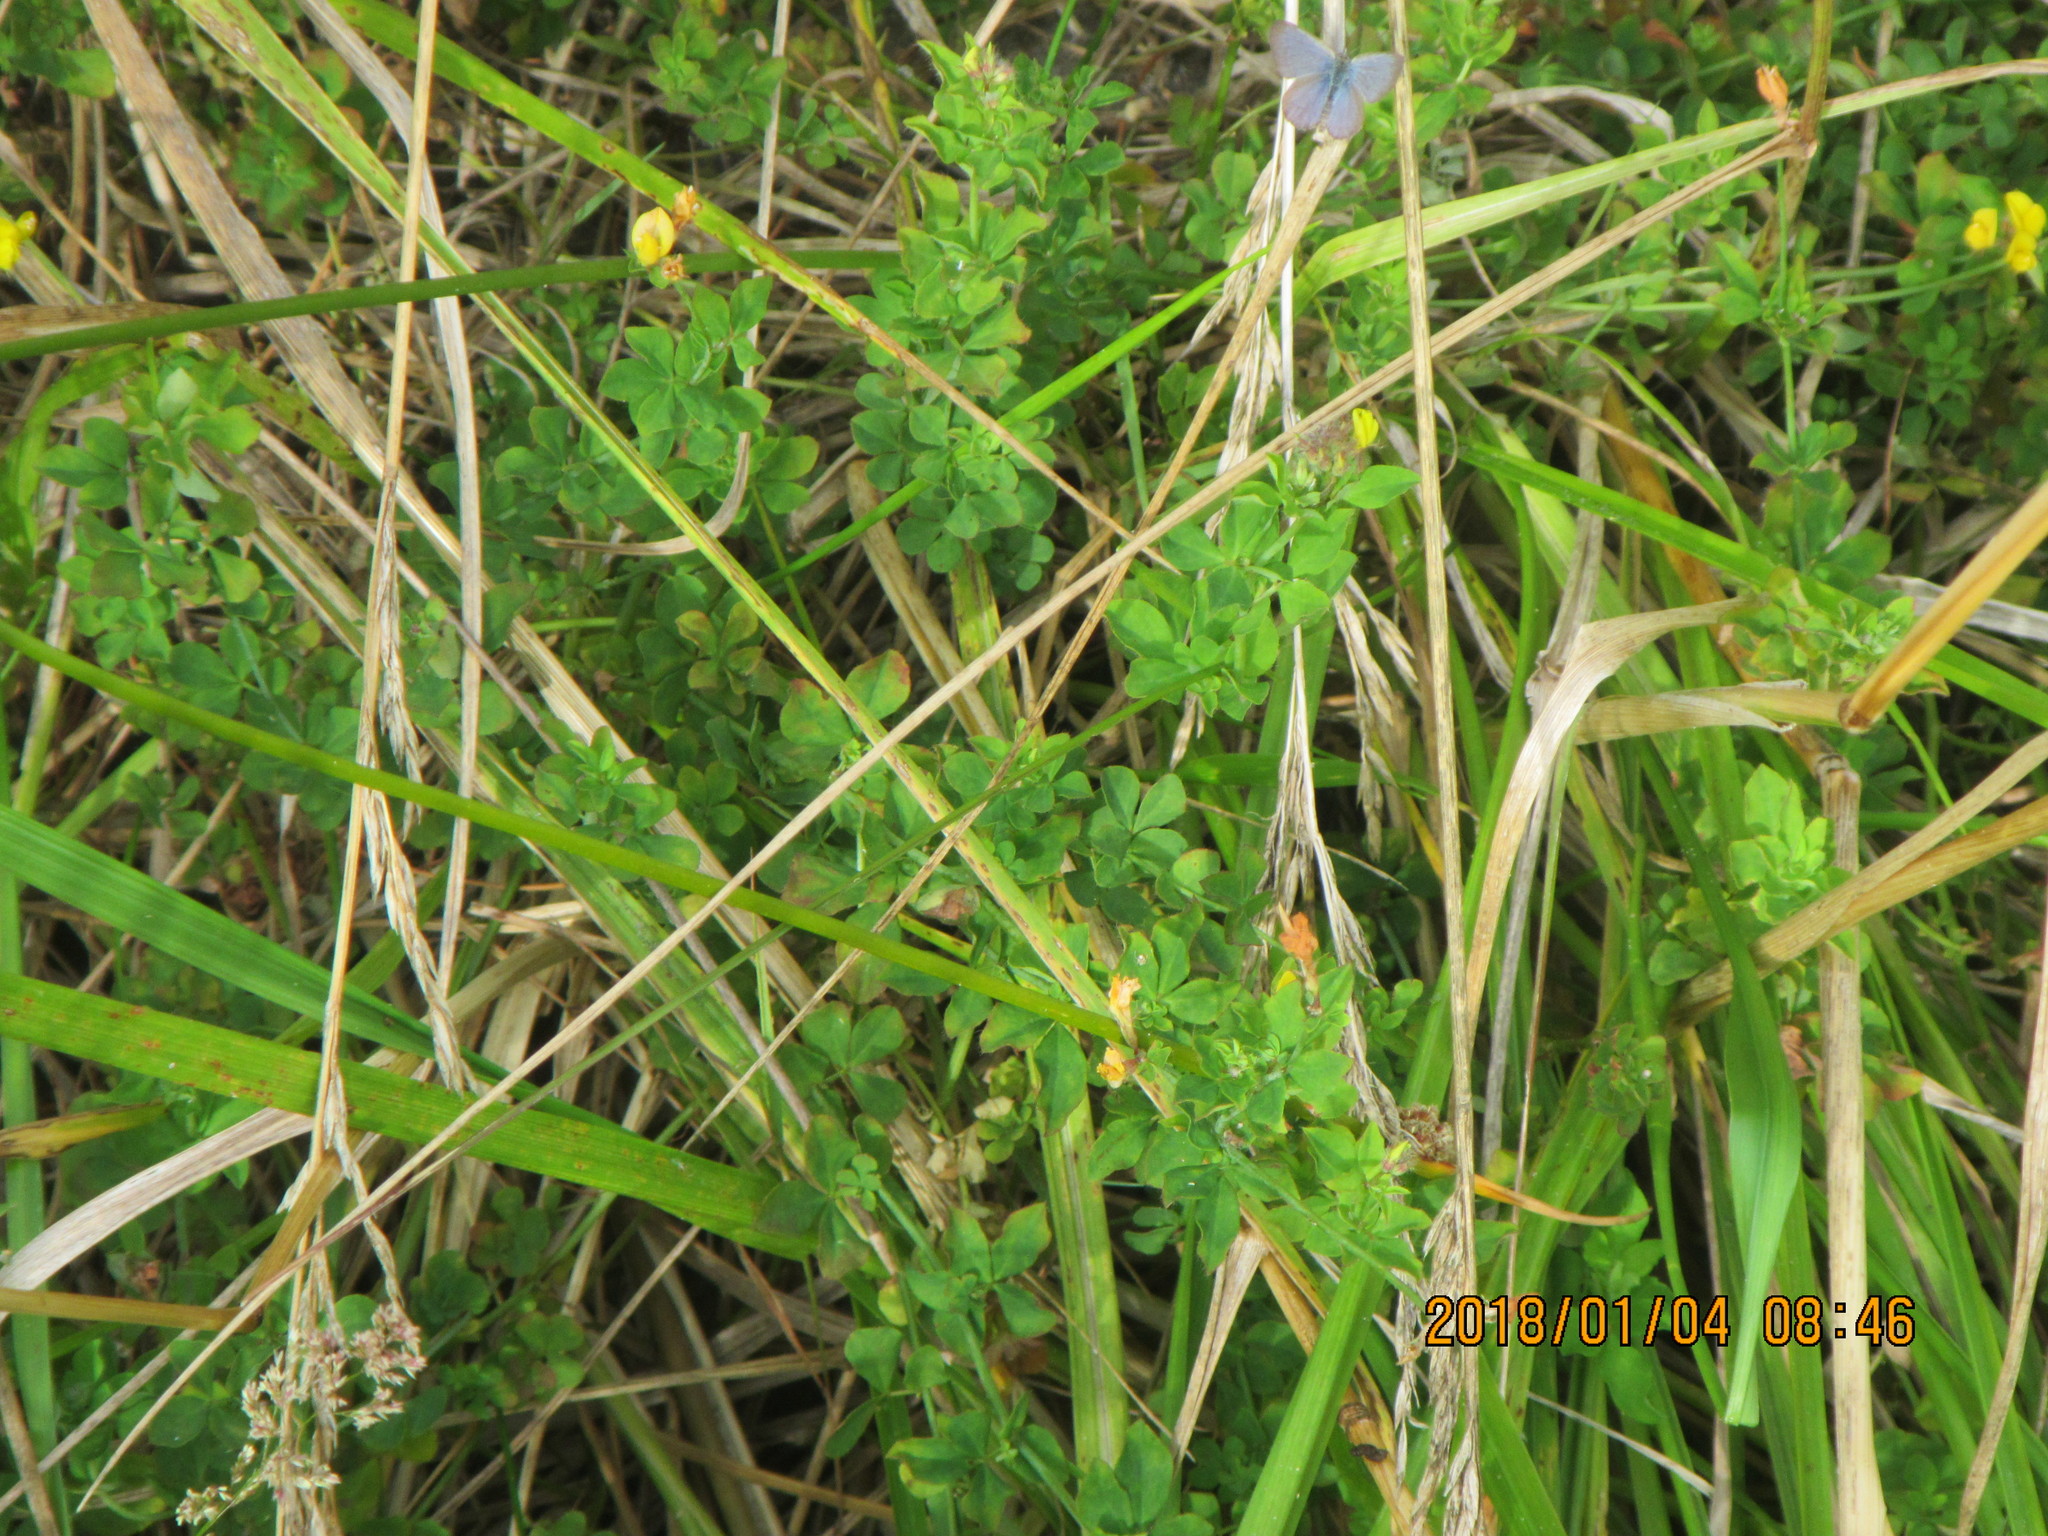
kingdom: Animalia
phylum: Arthropoda
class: Insecta
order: Lepidoptera
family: Lycaenidae
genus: Zizina
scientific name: Zizina otis
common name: Lesser grass blue
